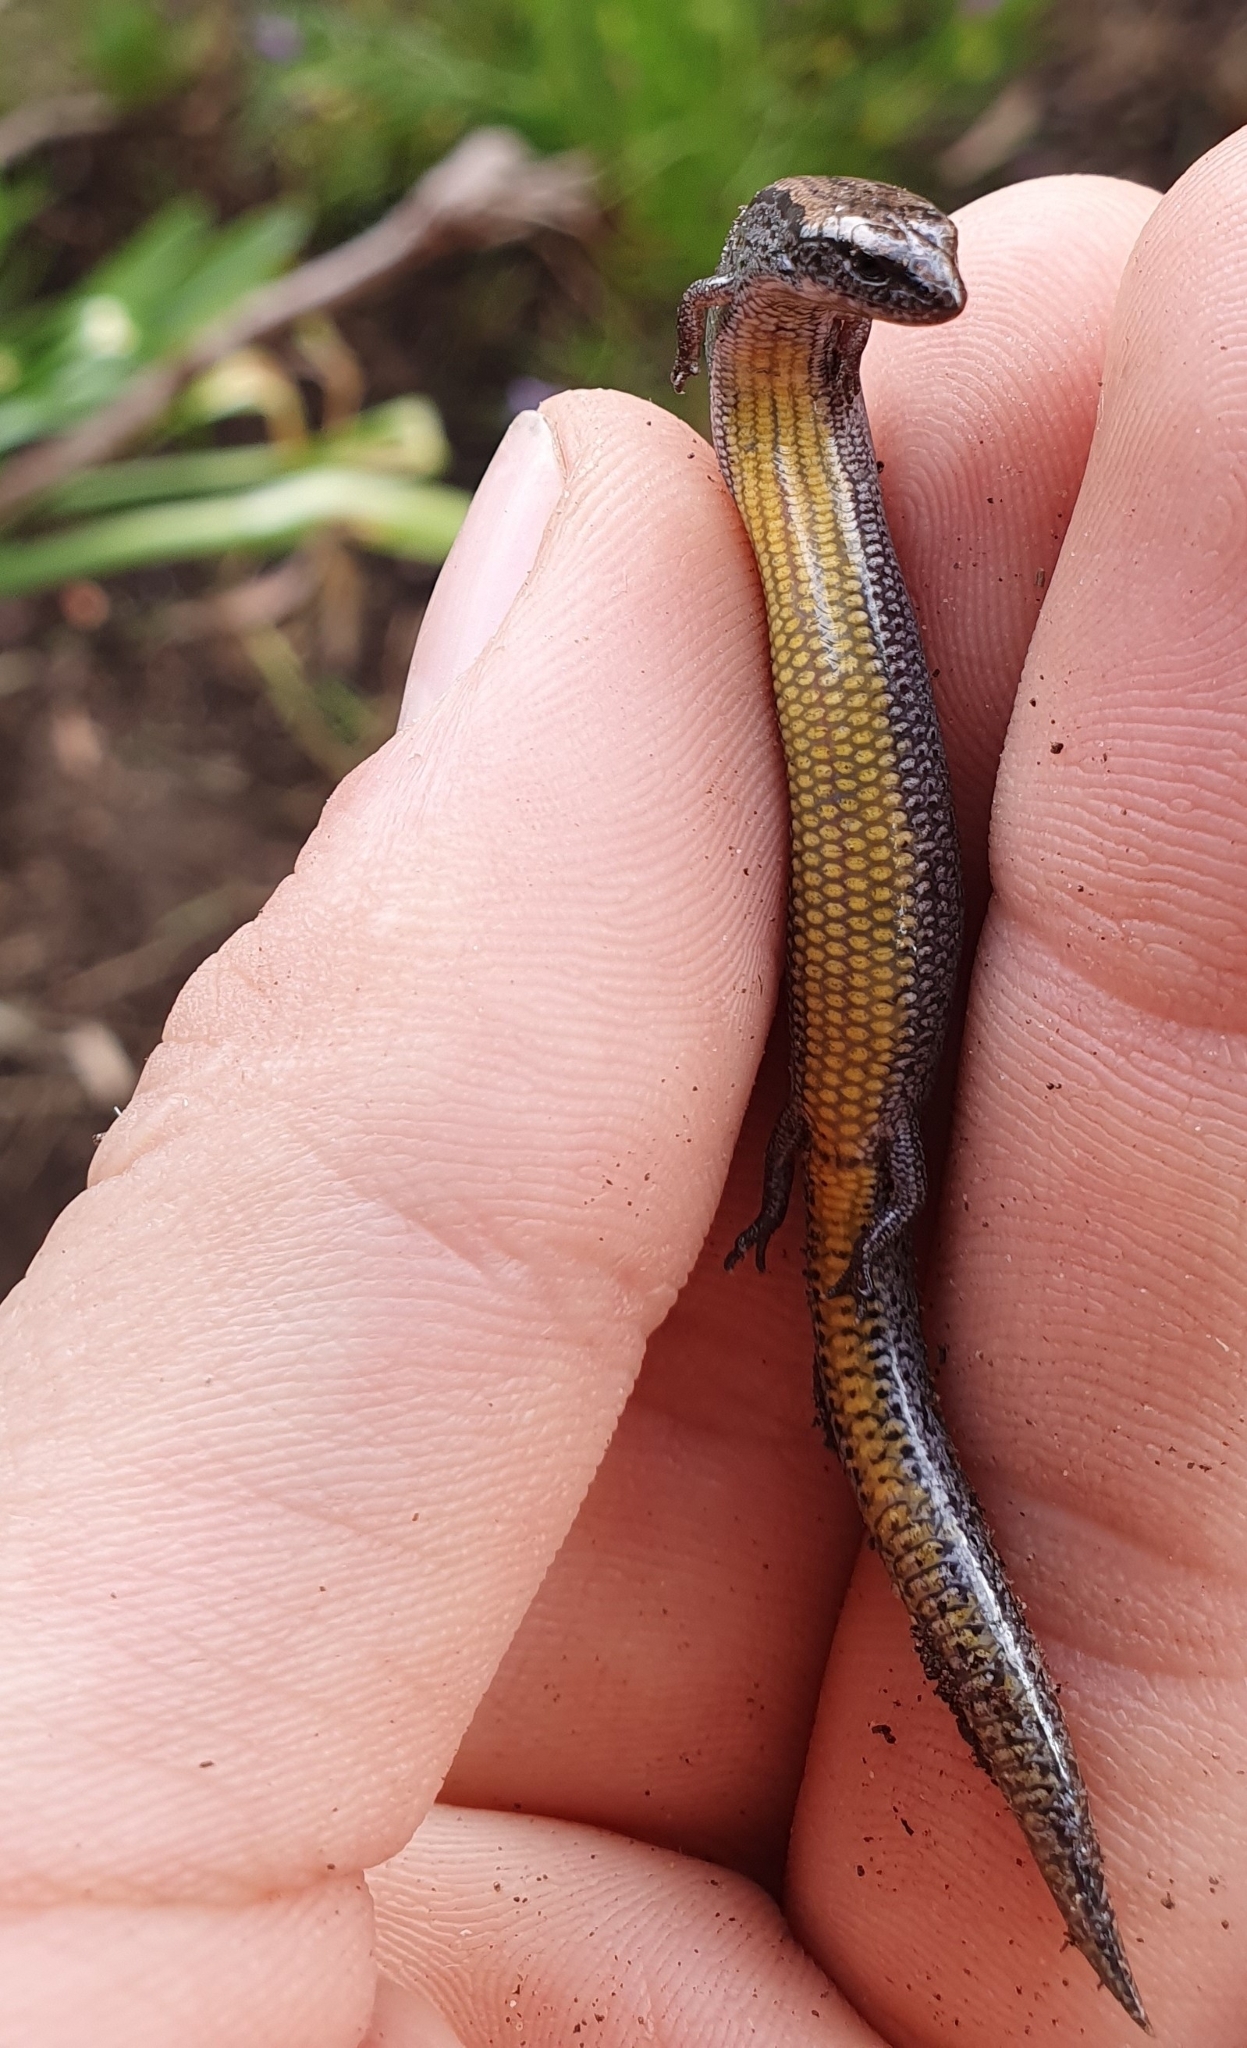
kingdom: Animalia
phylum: Chordata
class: Squamata
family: Scincidae
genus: Hemiergis
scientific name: Hemiergis decresiensis
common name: Three-toed earless skink
